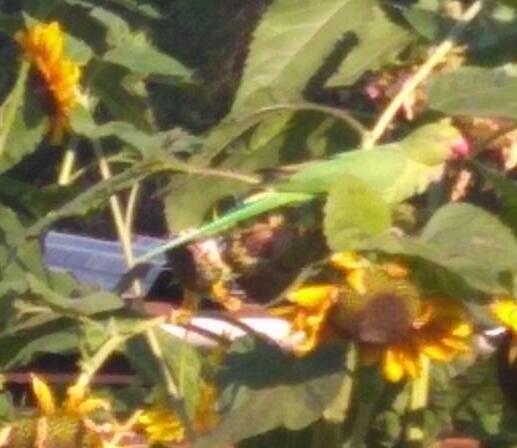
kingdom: Animalia
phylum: Chordata
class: Aves
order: Psittaciformes
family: Psittacidae
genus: Psittacula
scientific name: Psittacula krameri
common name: Rose-ringed parakeet
